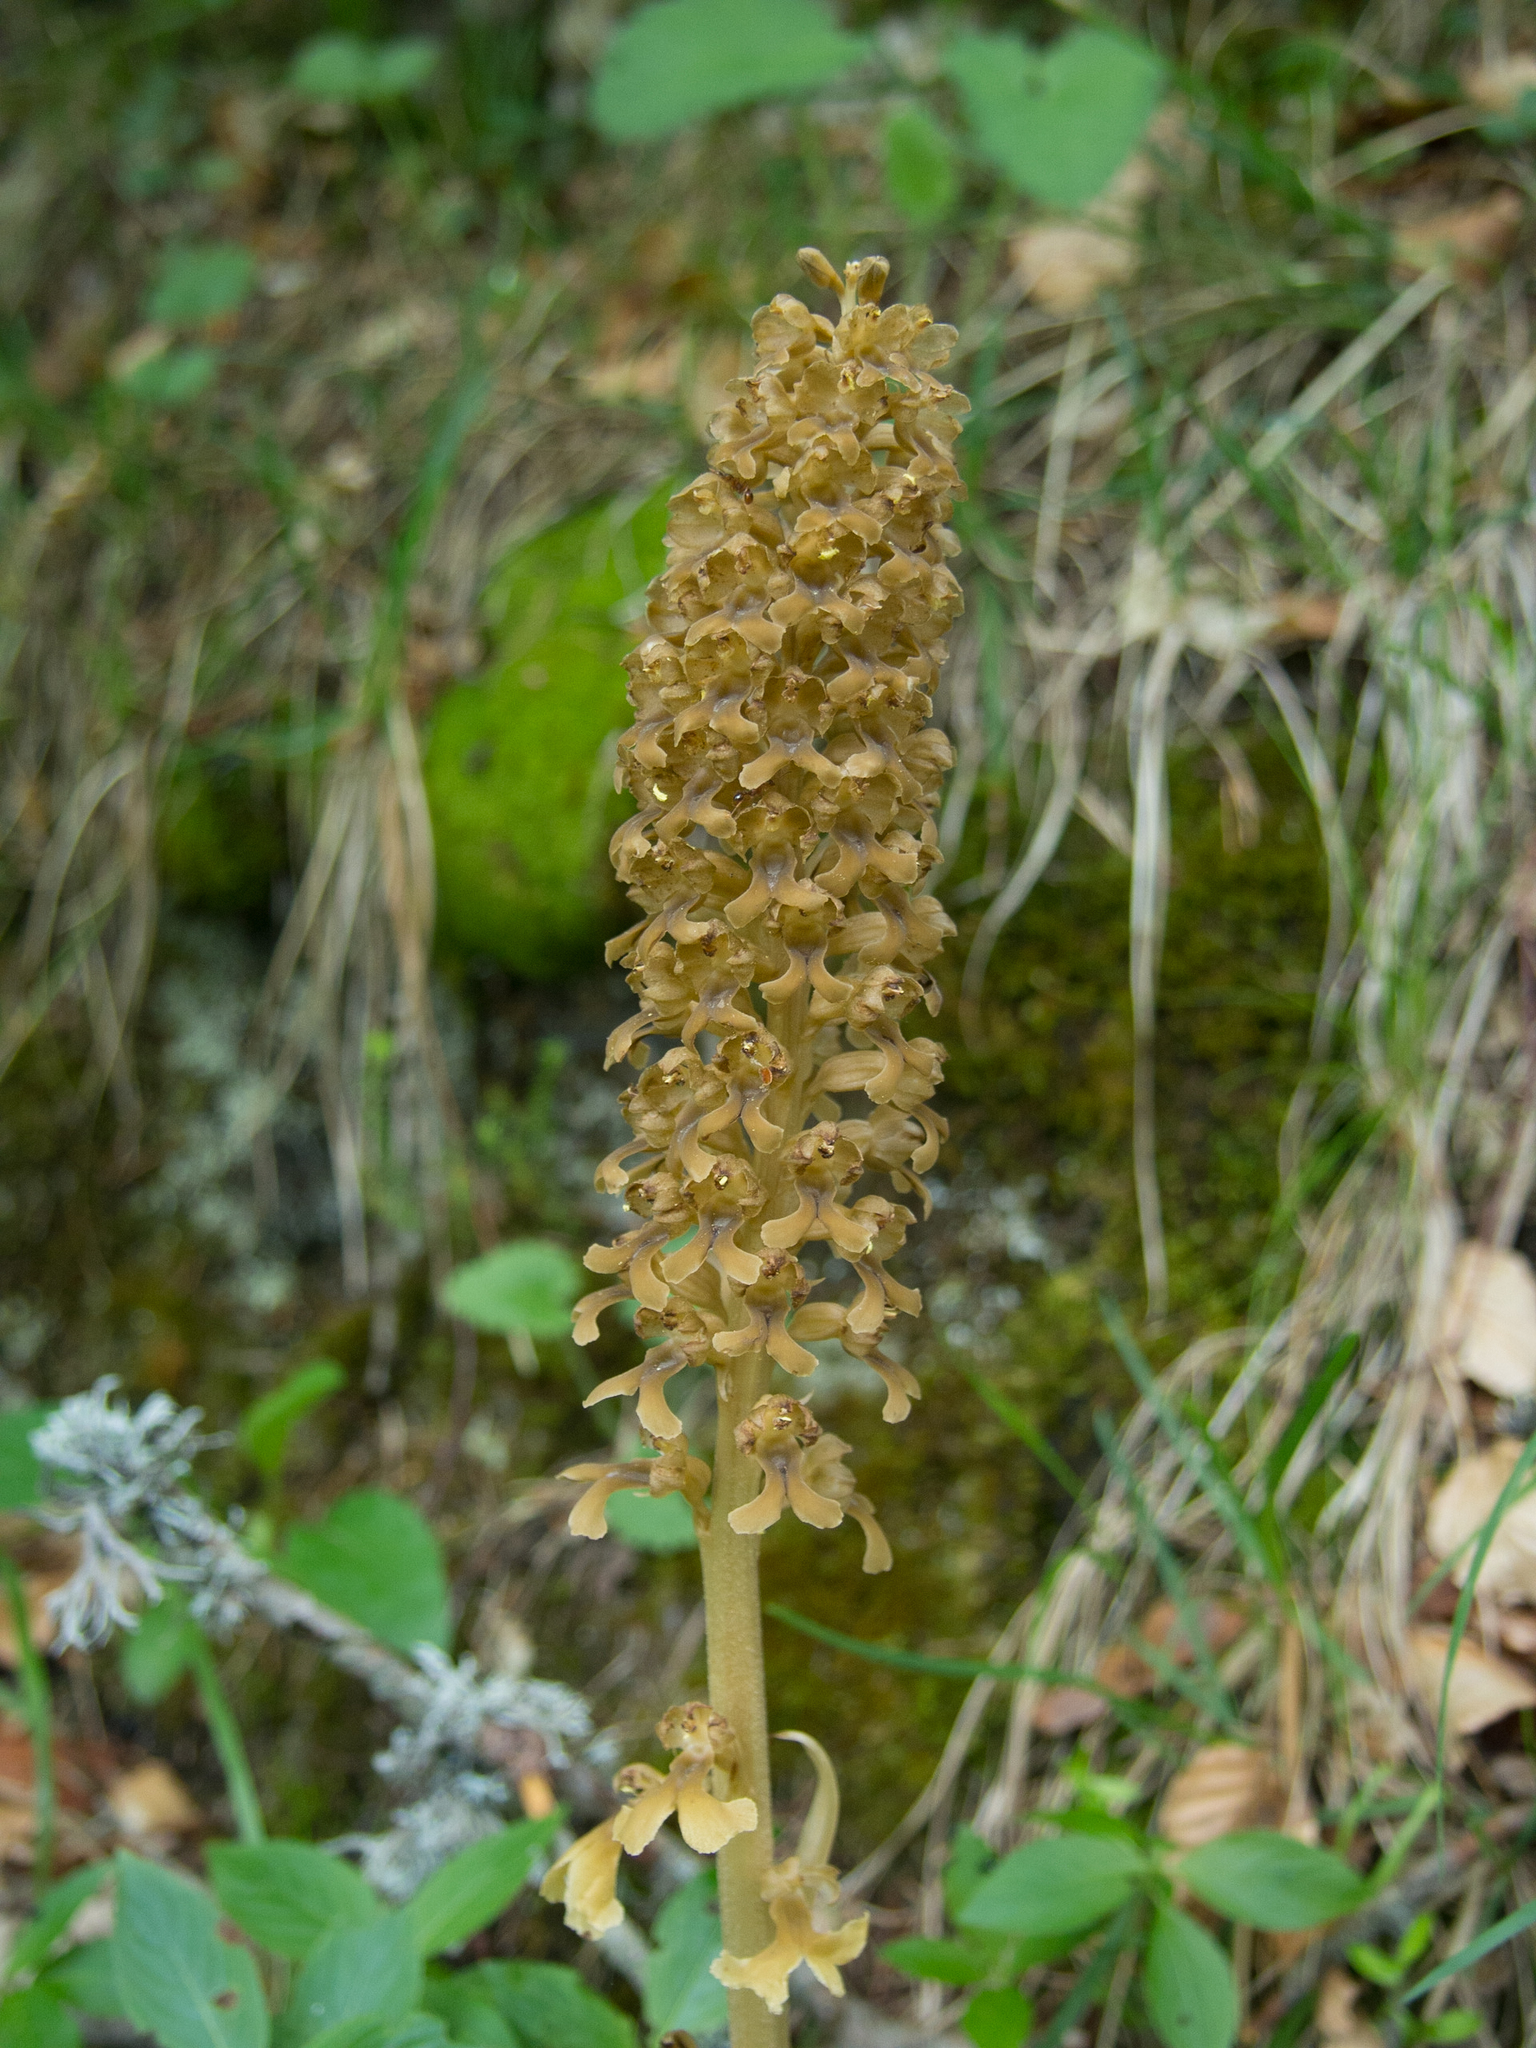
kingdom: Plantae
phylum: Tracheophyta
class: Liliopsida
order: Asparagales
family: Orchidaceae
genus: Neottia
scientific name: Neottia nidus-avis
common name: Bird's-nest orchid
